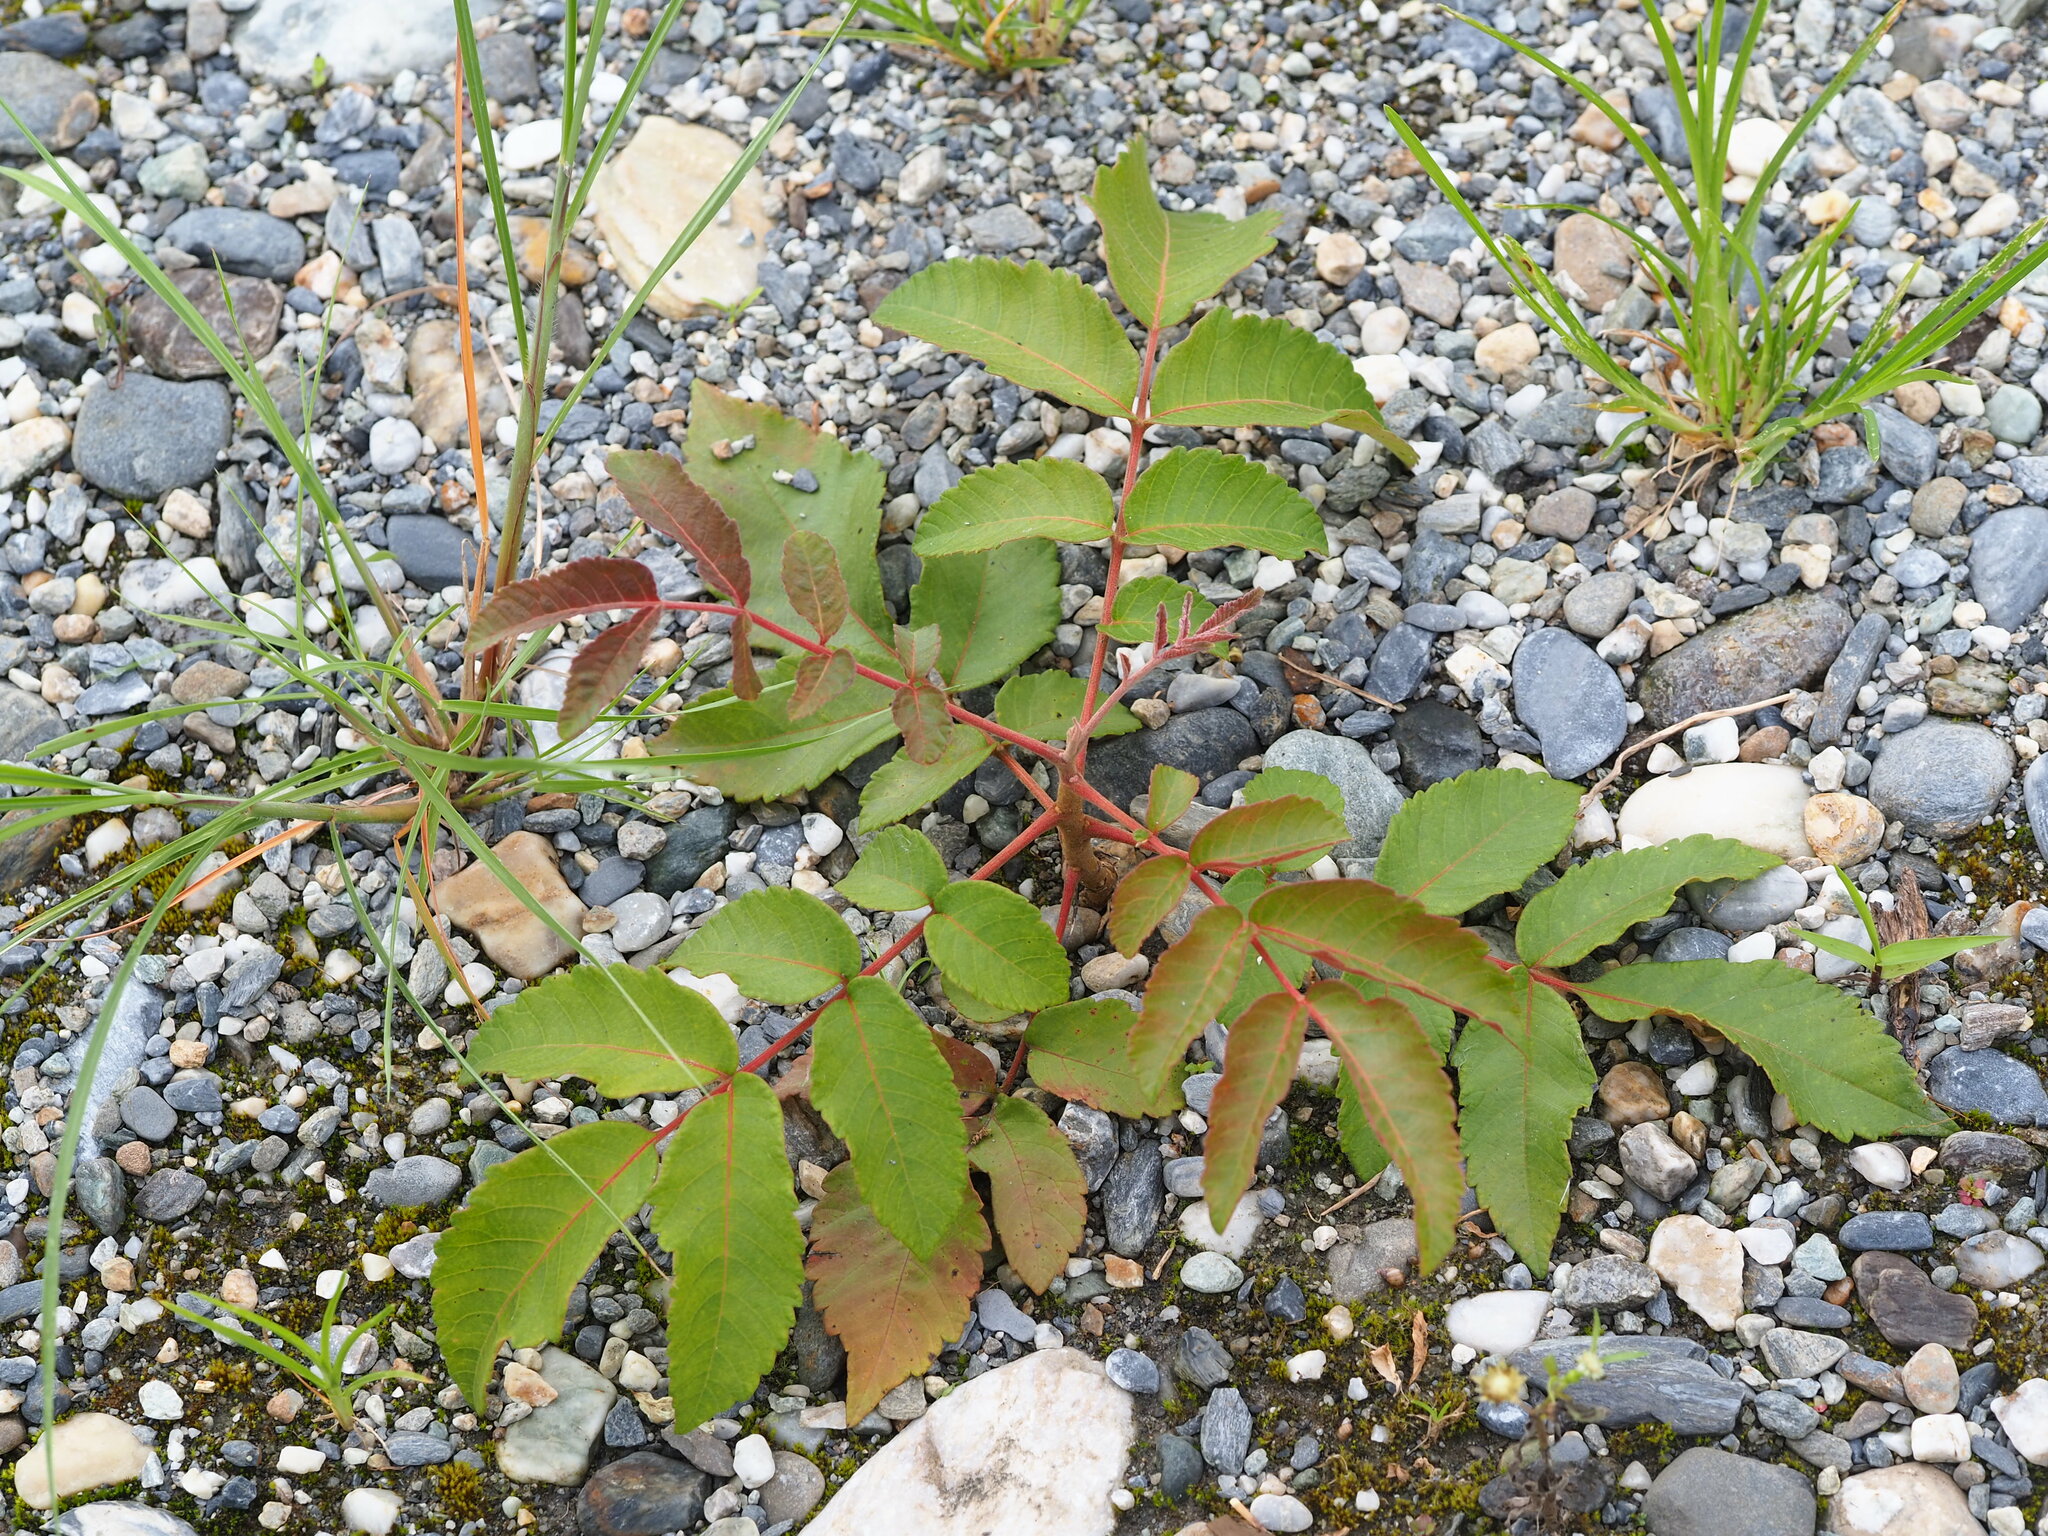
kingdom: Plantae
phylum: Tracheophyta
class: Magnoliopsida
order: Sapindales
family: Anacardiaceae
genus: Rhus
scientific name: Rhus chinensis
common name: Chinese gall
